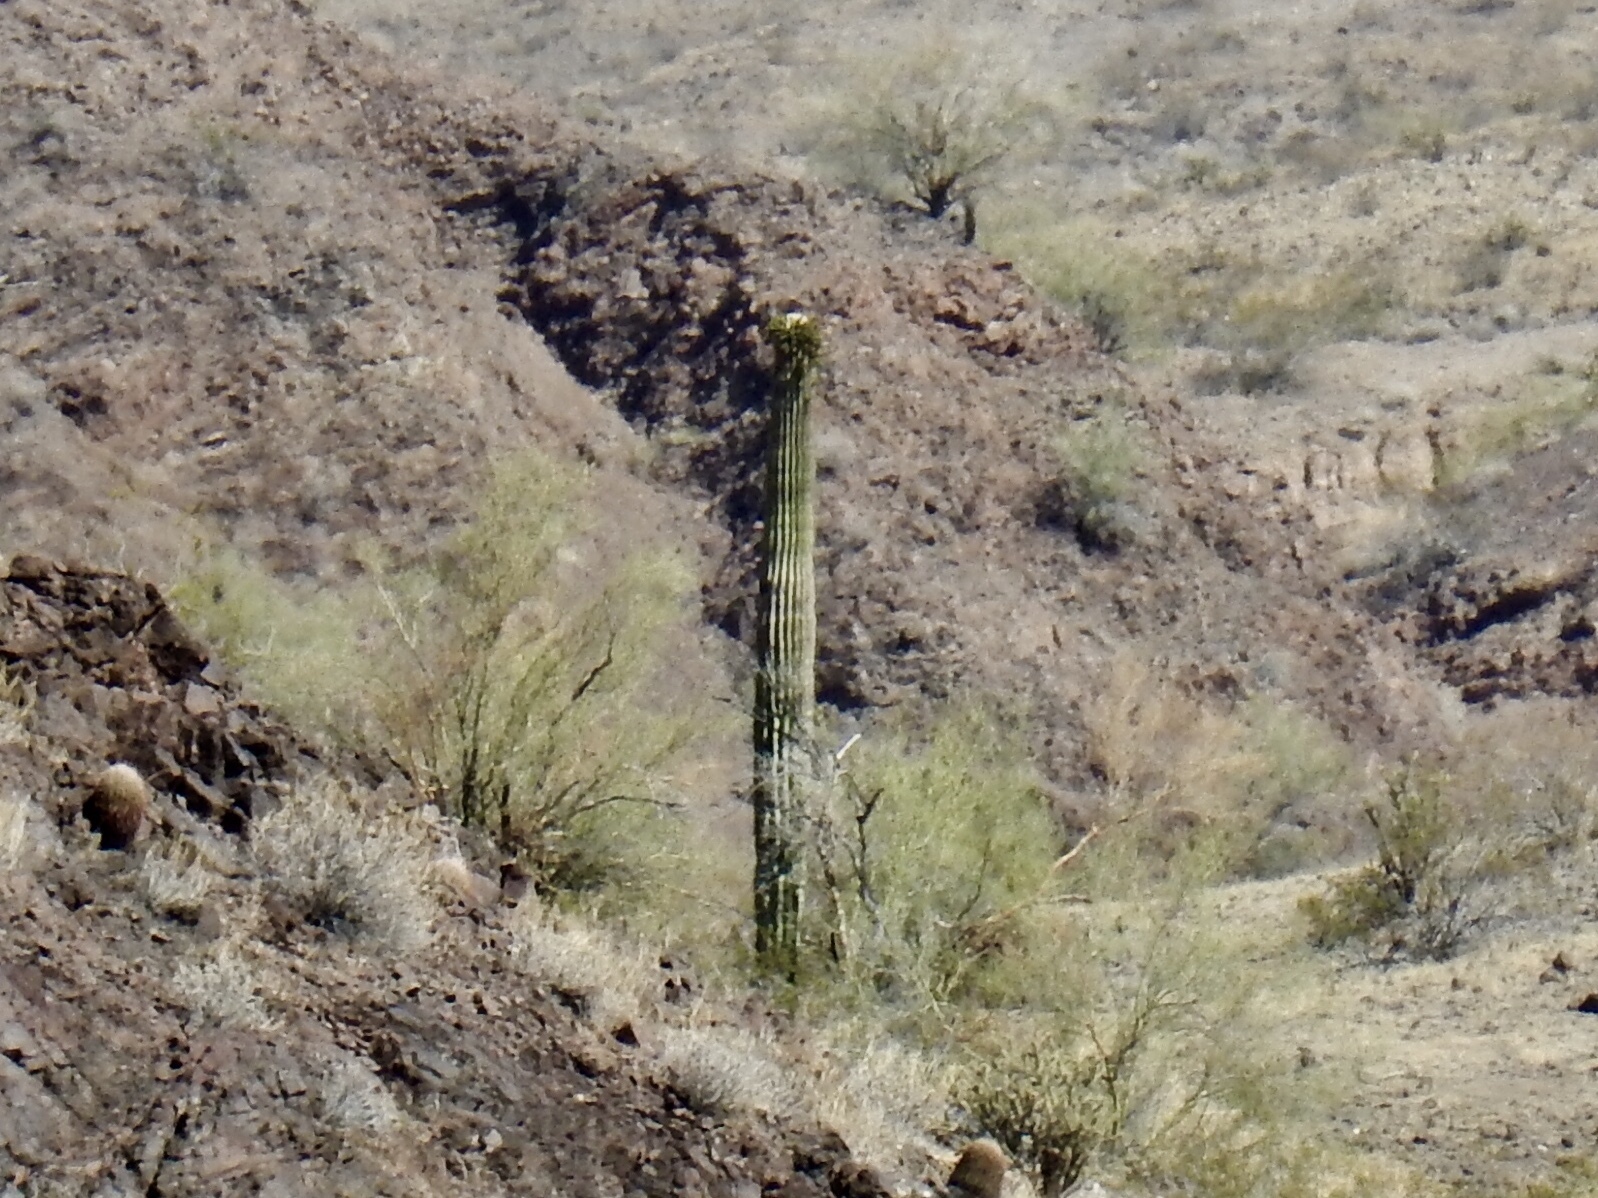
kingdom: Plantae
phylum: Tracheophyta
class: Magnoliopsida
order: Caryophyllales
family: Cactaceae
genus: Carnegiea
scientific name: Carnegiea gigantea
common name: Saguaro
